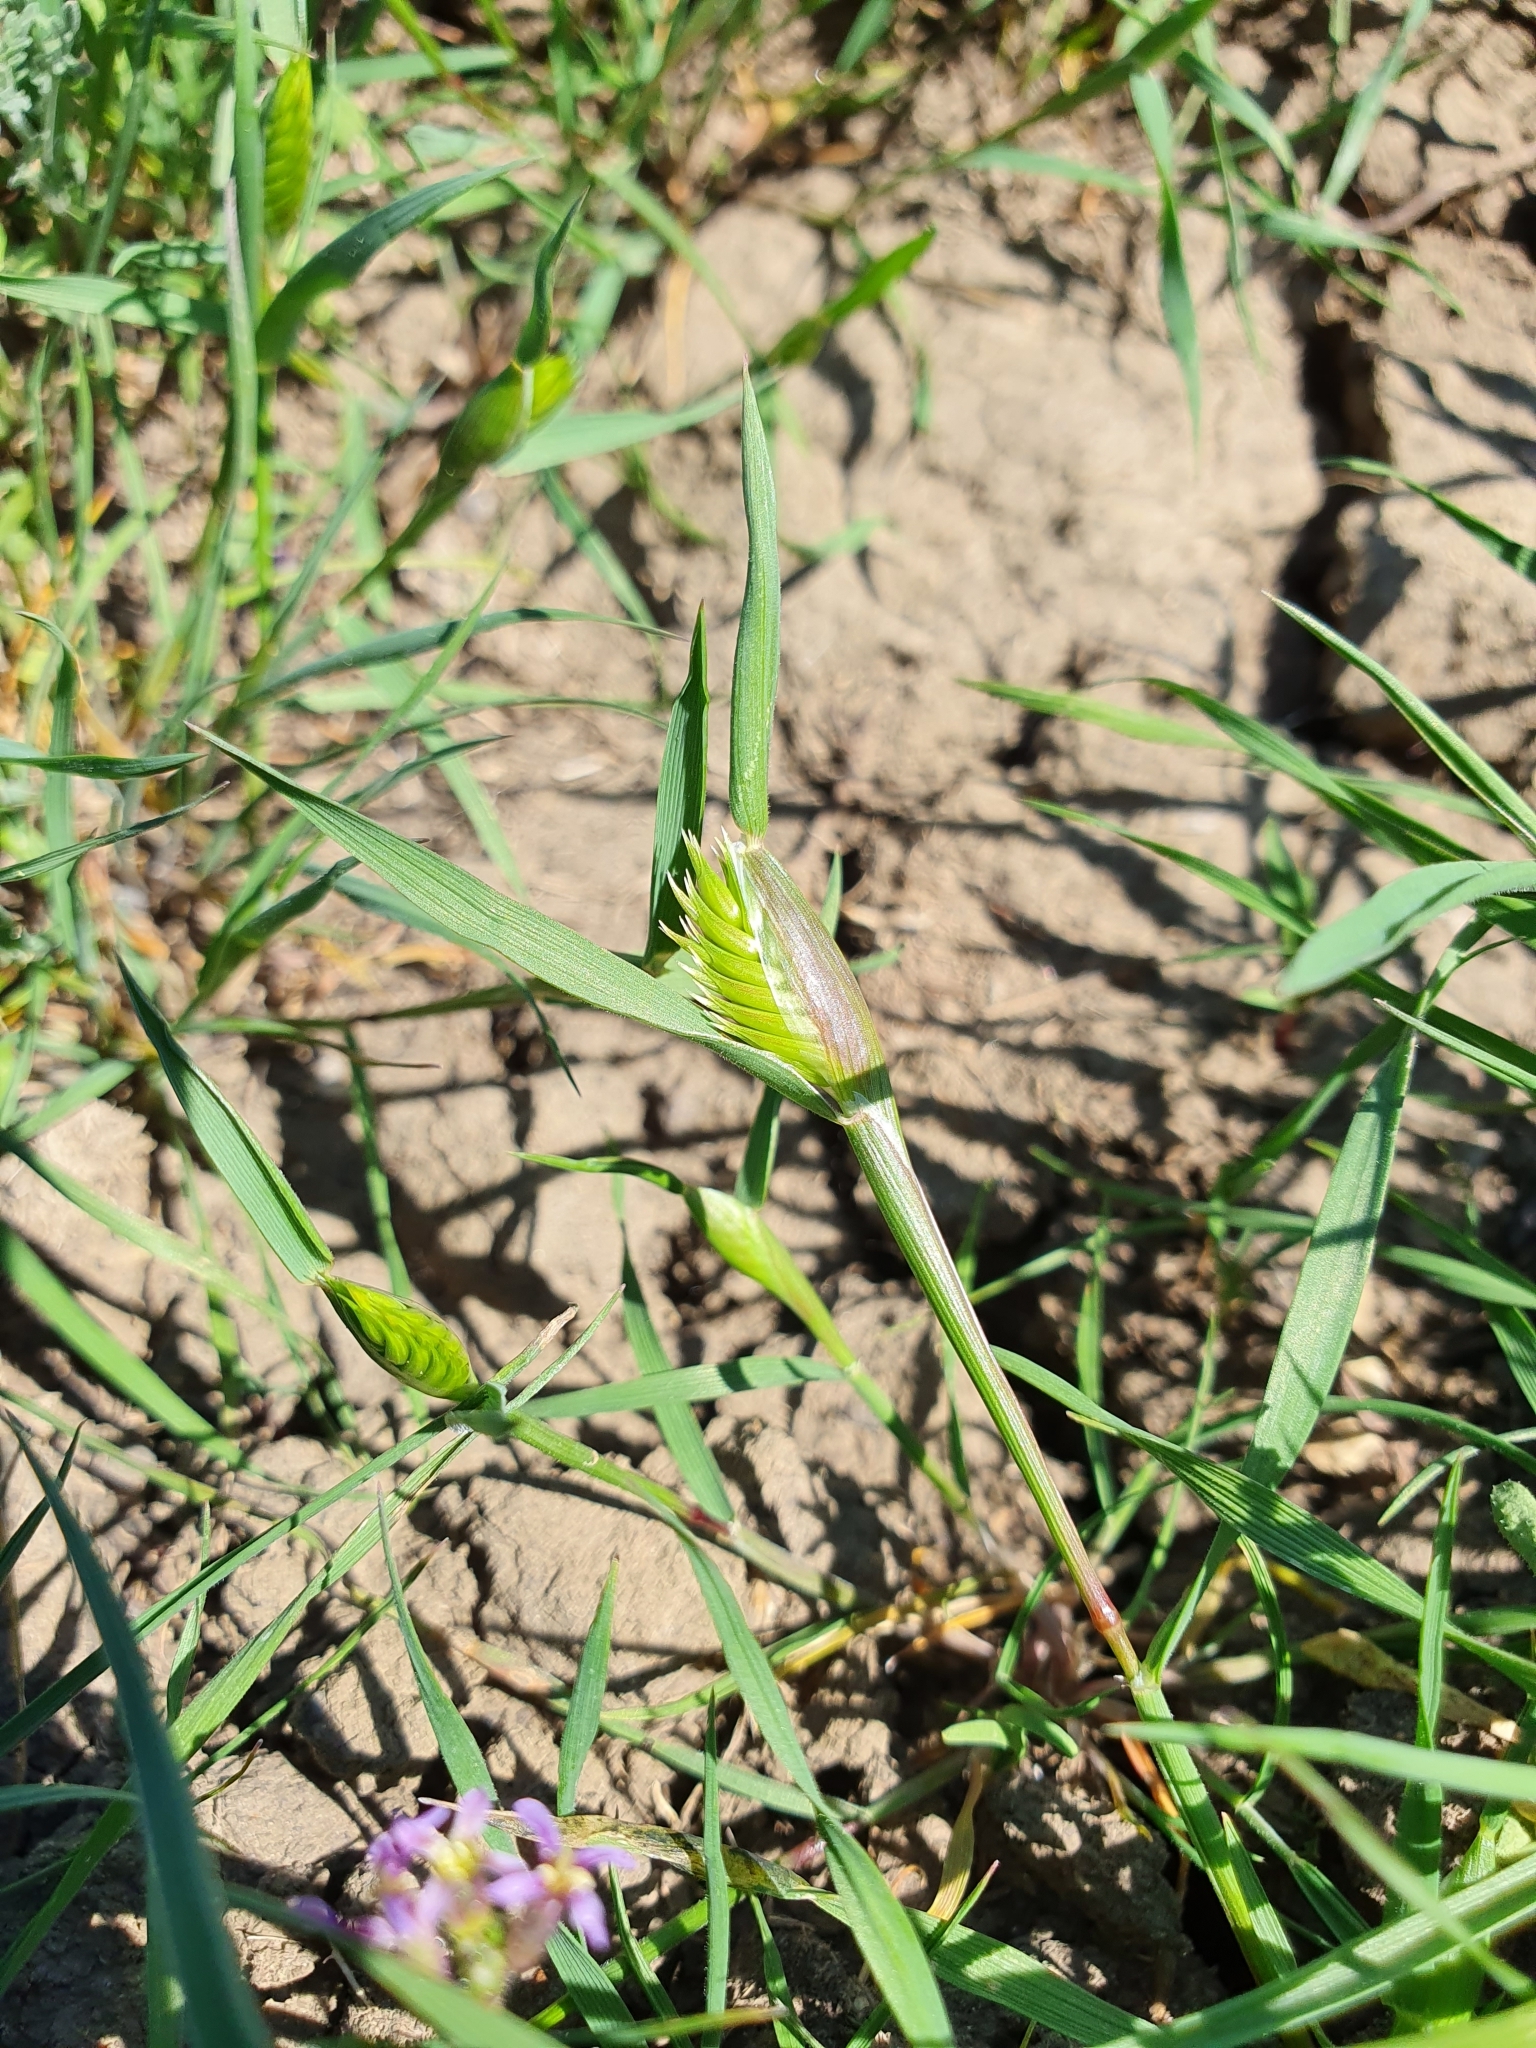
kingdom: Plantae
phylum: Tracheophyta
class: Liliopsida
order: Poales
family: Poaceae
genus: Eremopyrum
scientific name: Eremopyrum triticeum
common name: Annual wheatgrass
